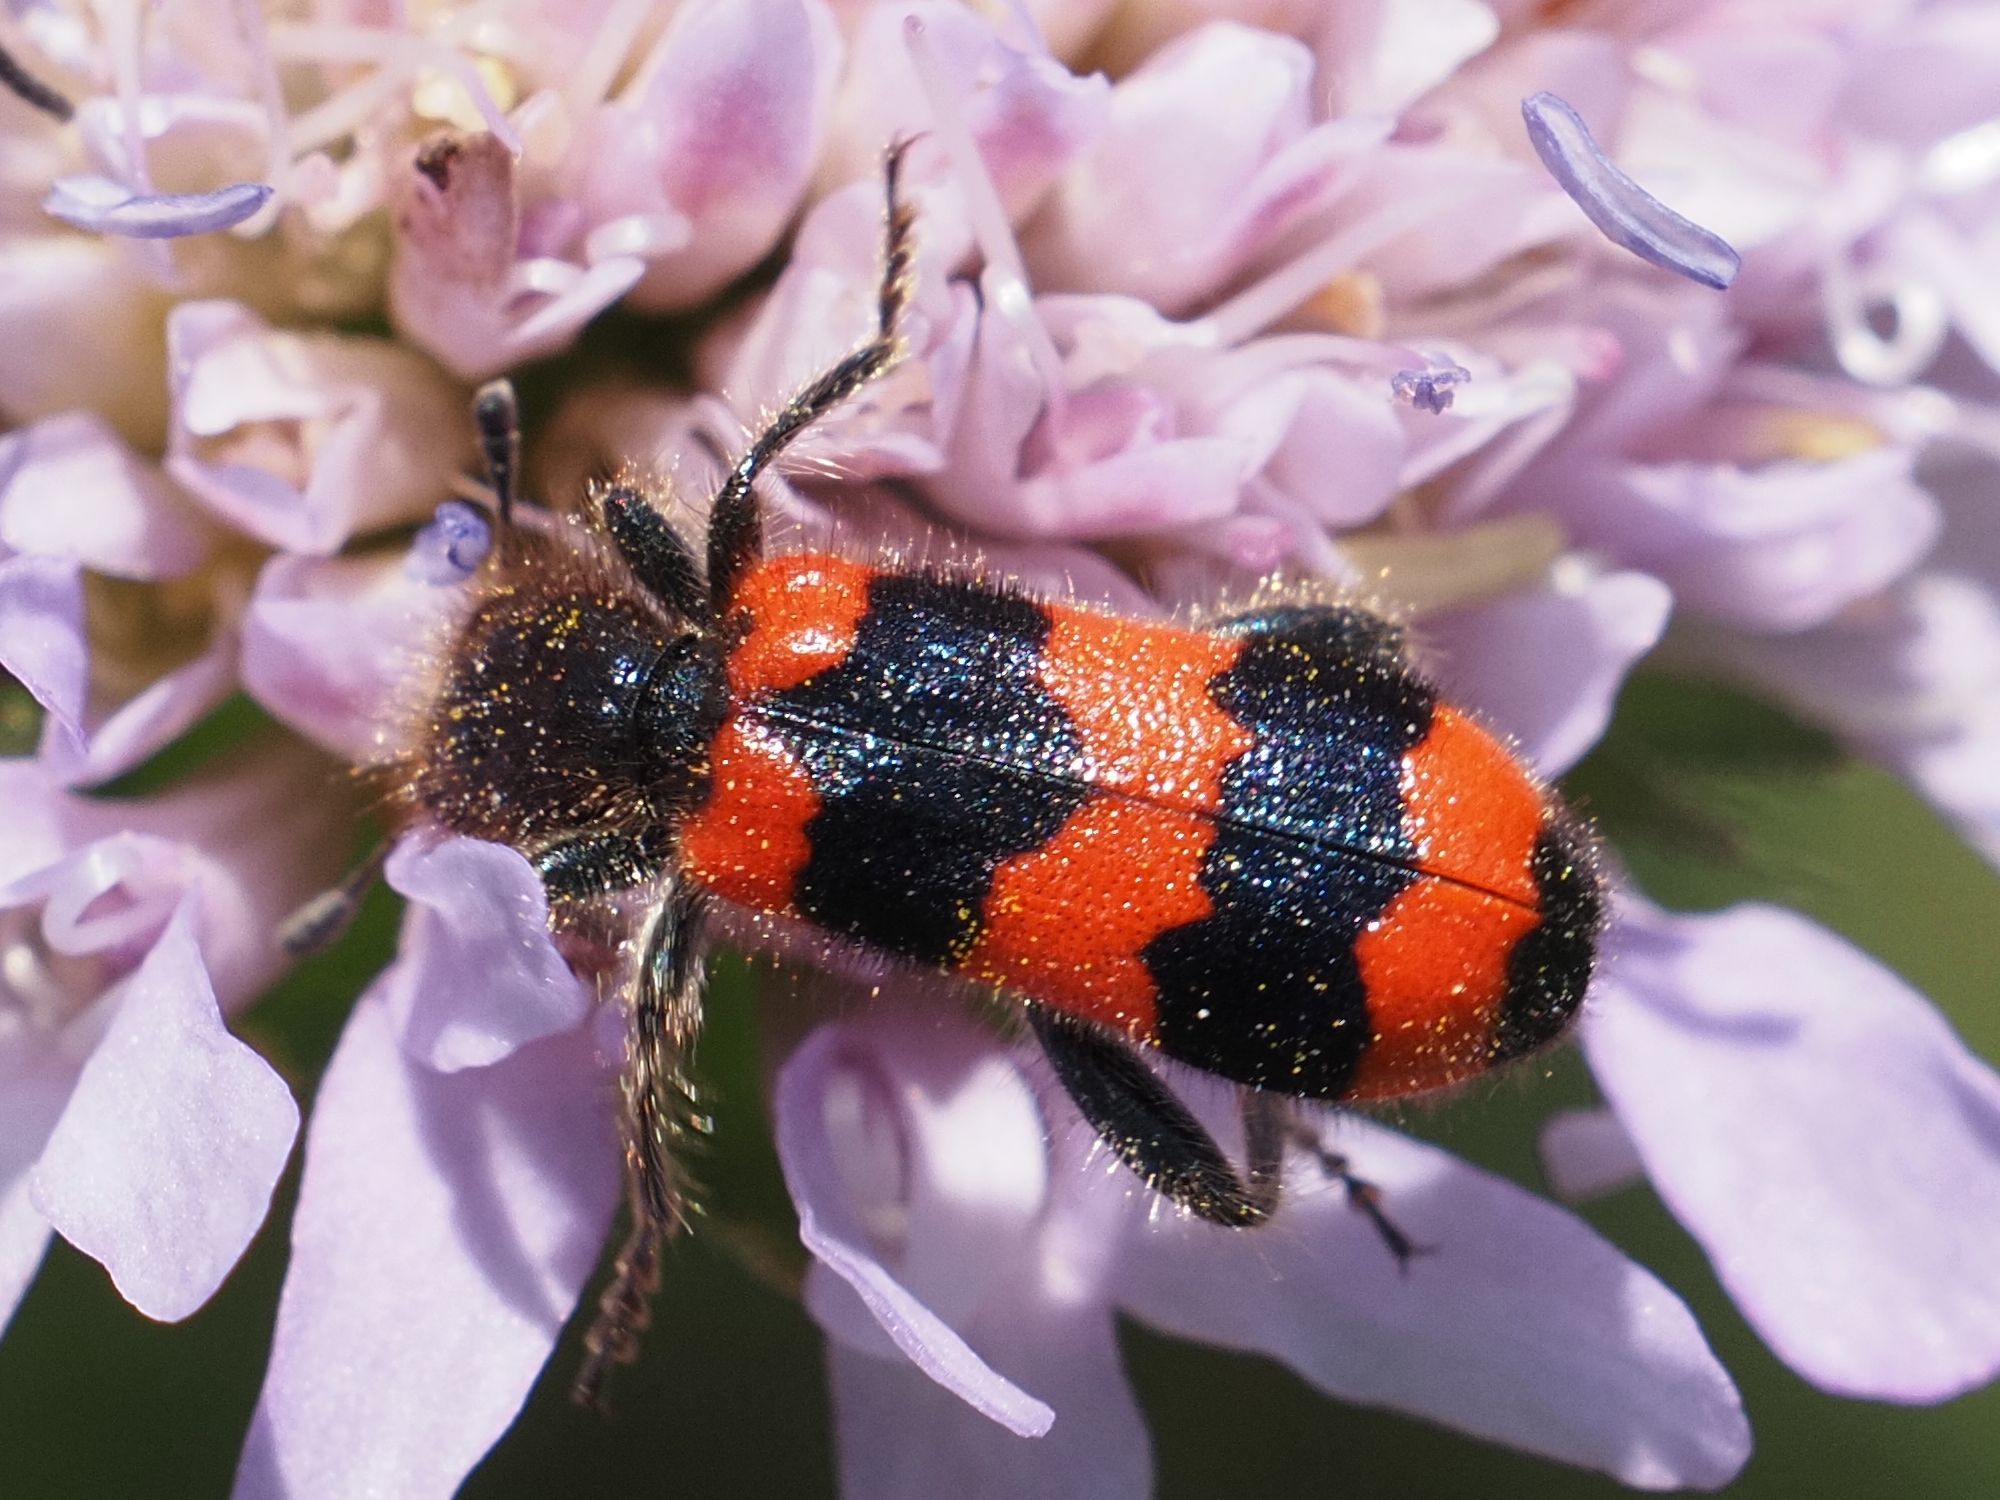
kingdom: Animalia
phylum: Arthropoda
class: Insecta
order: Coleoptera
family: Cleridae
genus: Trichodes
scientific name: Trichodes apiarius
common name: Bee-eating beetle
